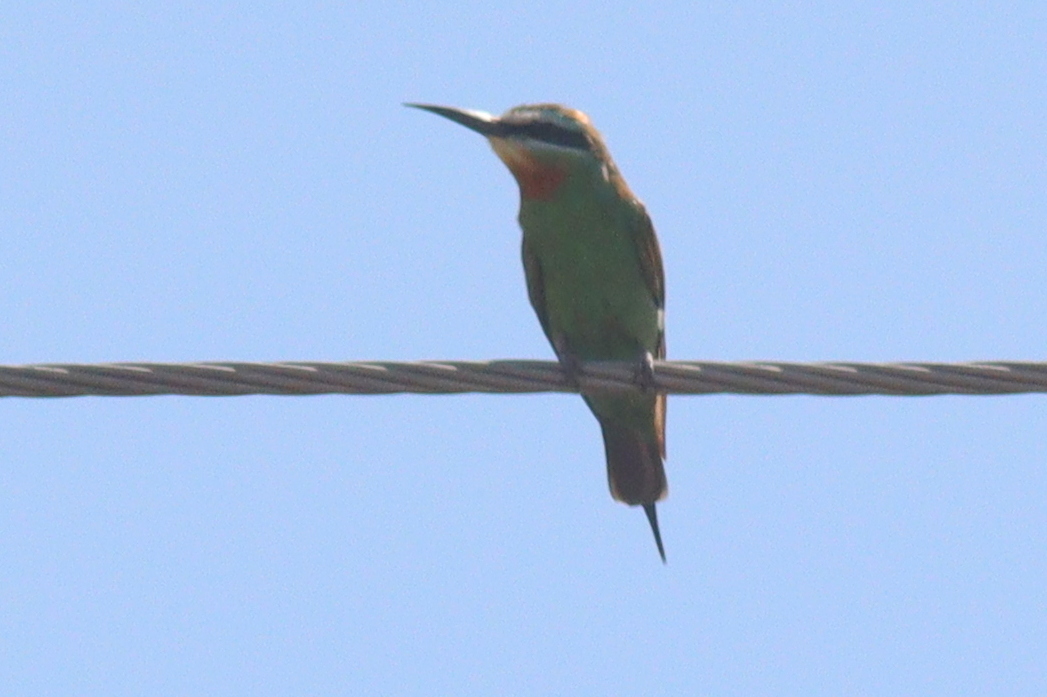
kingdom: Animalia
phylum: Chordata
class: Aves
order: Coraciiformes
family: Meropidae
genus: Merops
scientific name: Merops persicus
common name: Blue-cheeked bee-eater
